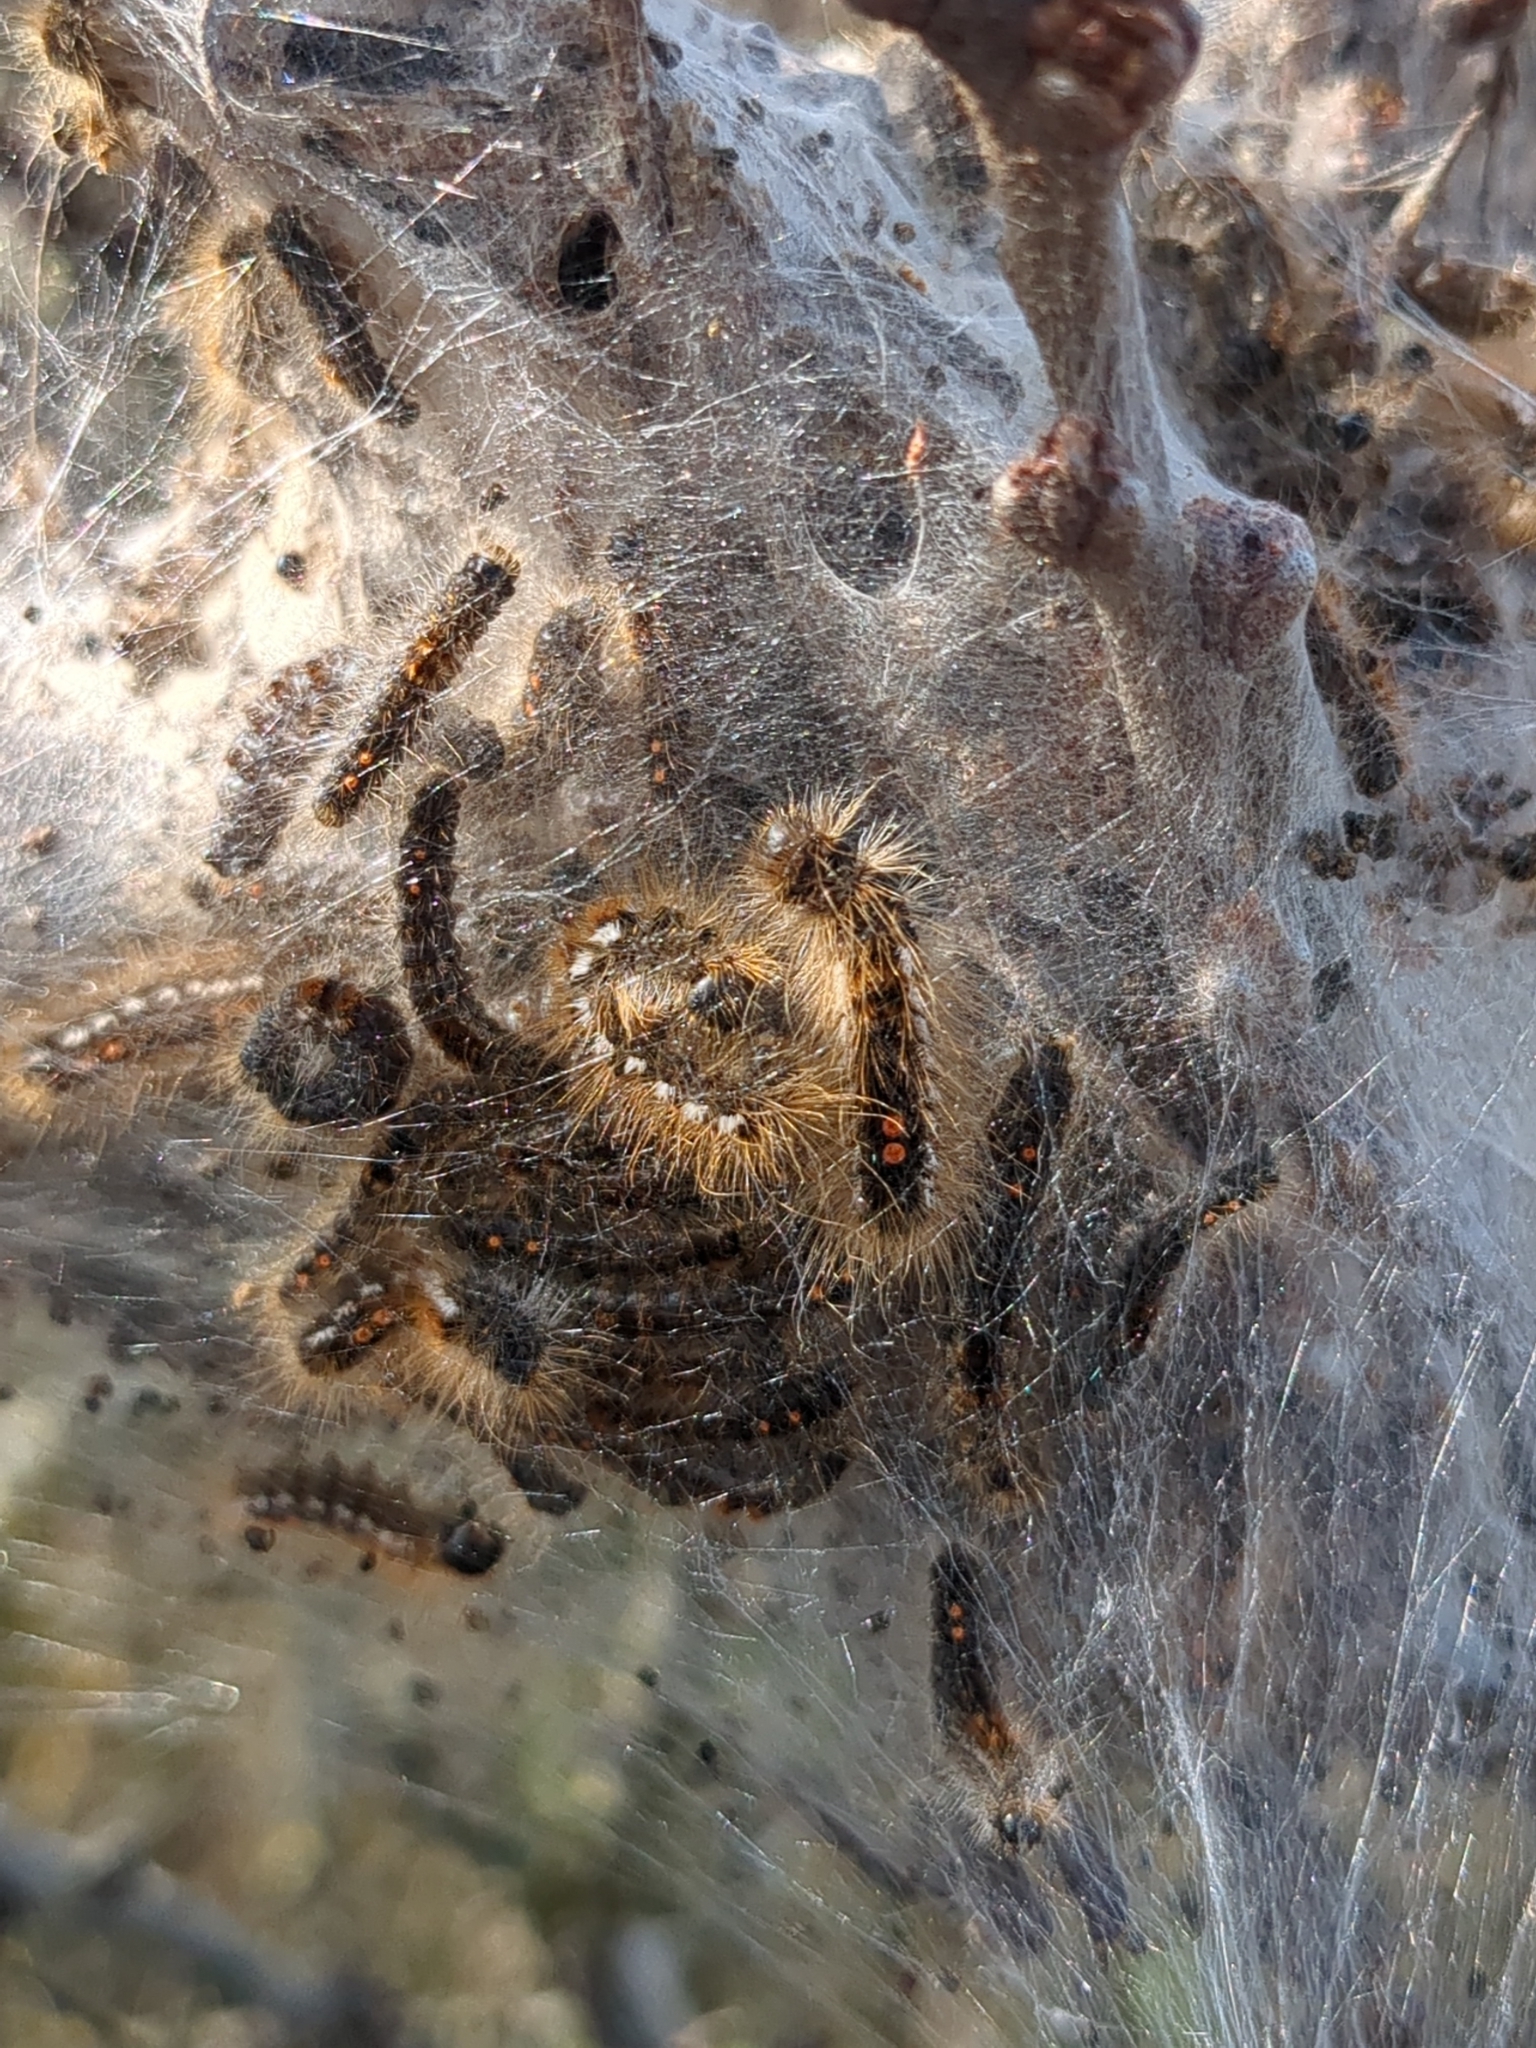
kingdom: Animalia
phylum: Arthropoda
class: Insecta
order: Lepidoptera
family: Erebidae
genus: Euproctis
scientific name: Euproctis chrysorrhoea
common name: Brown-tail
